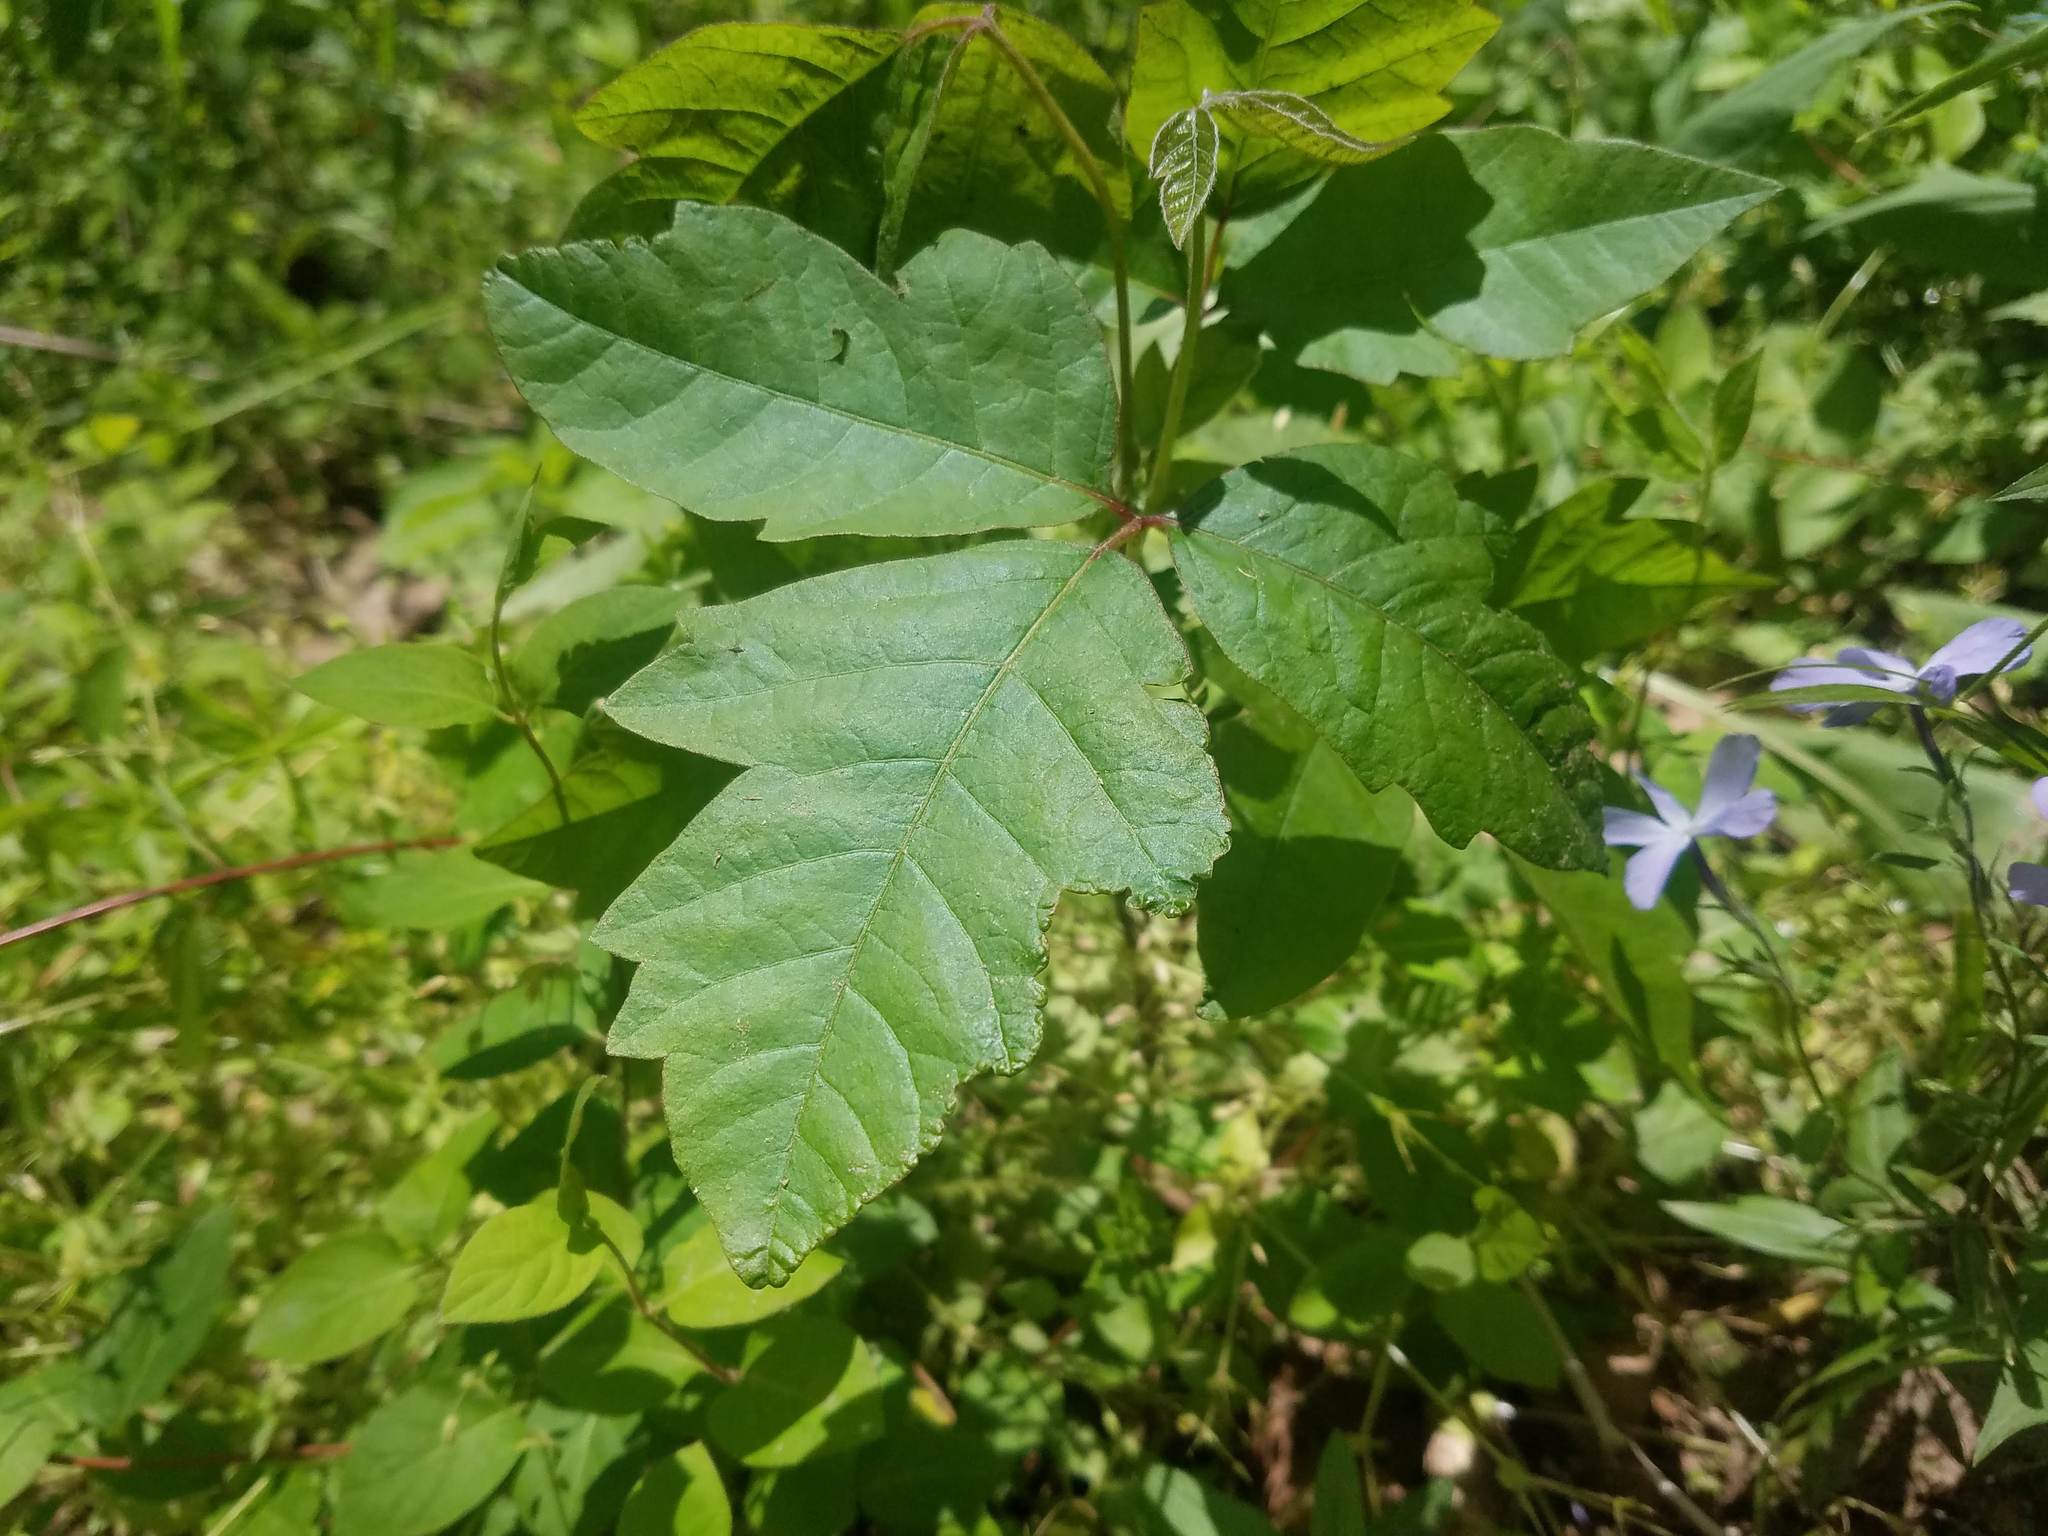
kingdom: Plantae
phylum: Tracheophyta
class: Magnoliopsida
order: Sapindales
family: Anacardiaceae
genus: Toxicodendron
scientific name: Toxicodendron radicans
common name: Poison ivy
